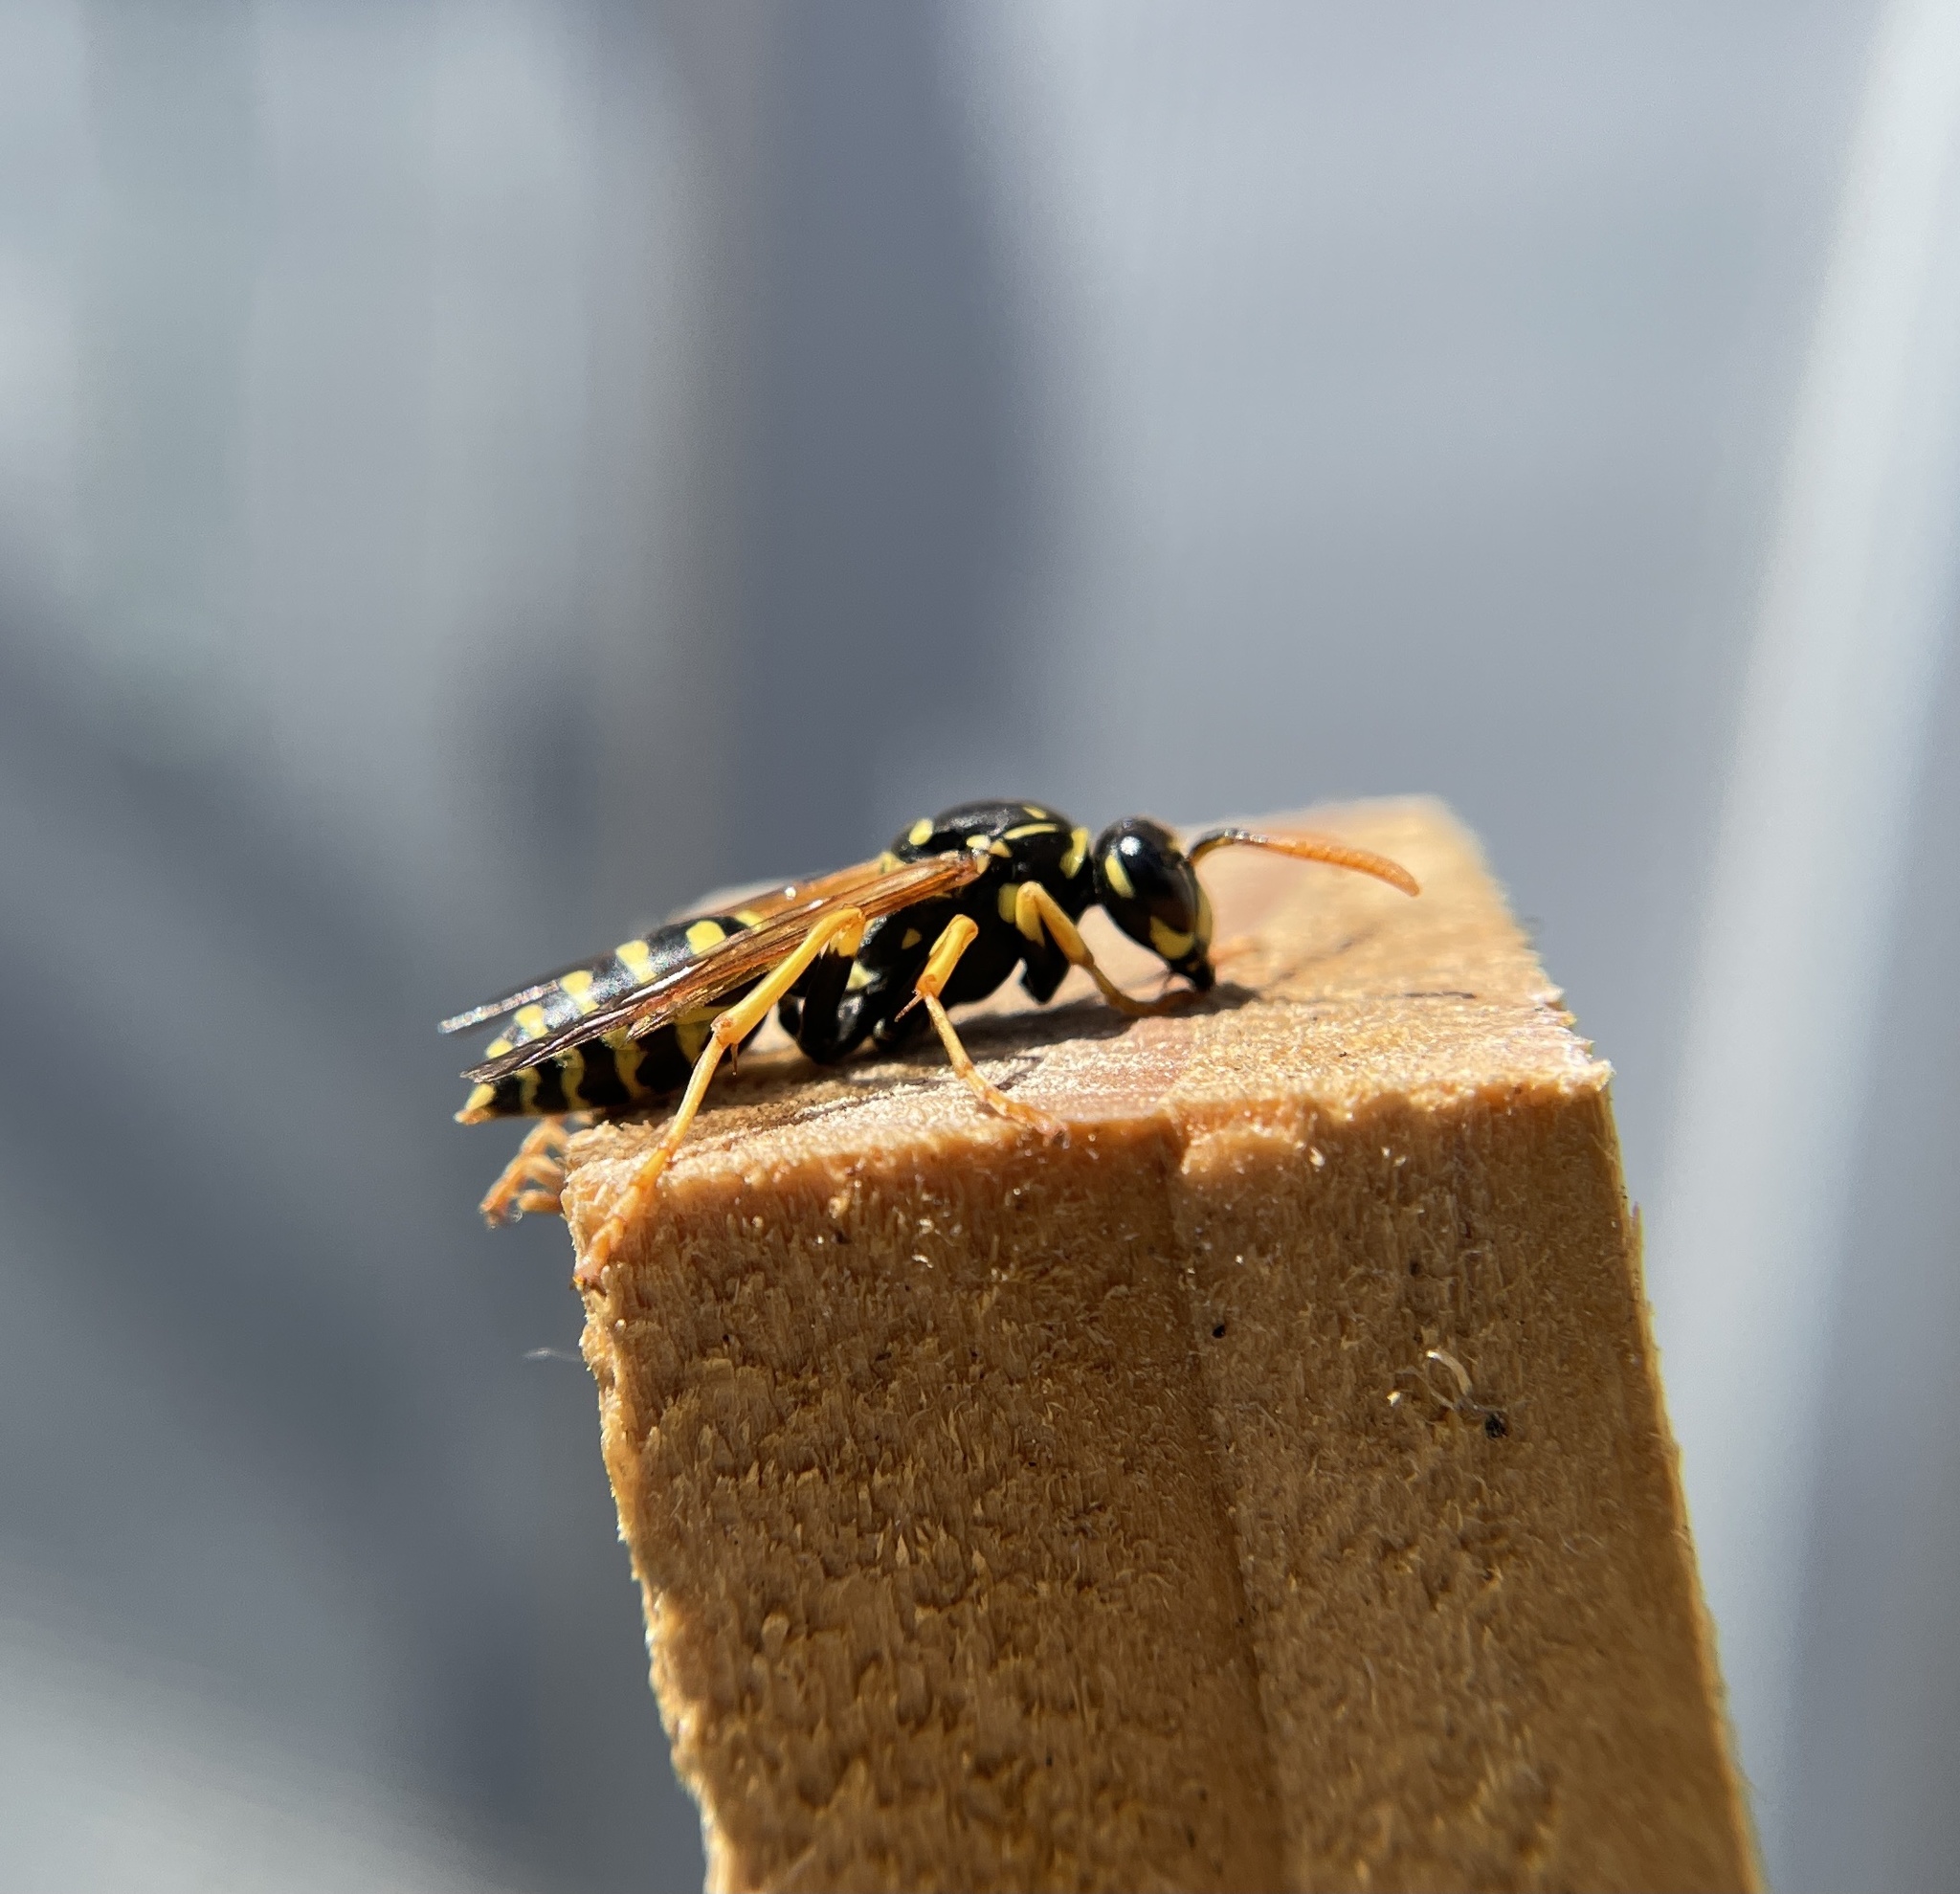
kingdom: Animalia
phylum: Arthropoda
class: Insecta
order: Hymenoptera
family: Eumenidae
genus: Polistes
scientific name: Polistes dominula
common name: Paper wasp
